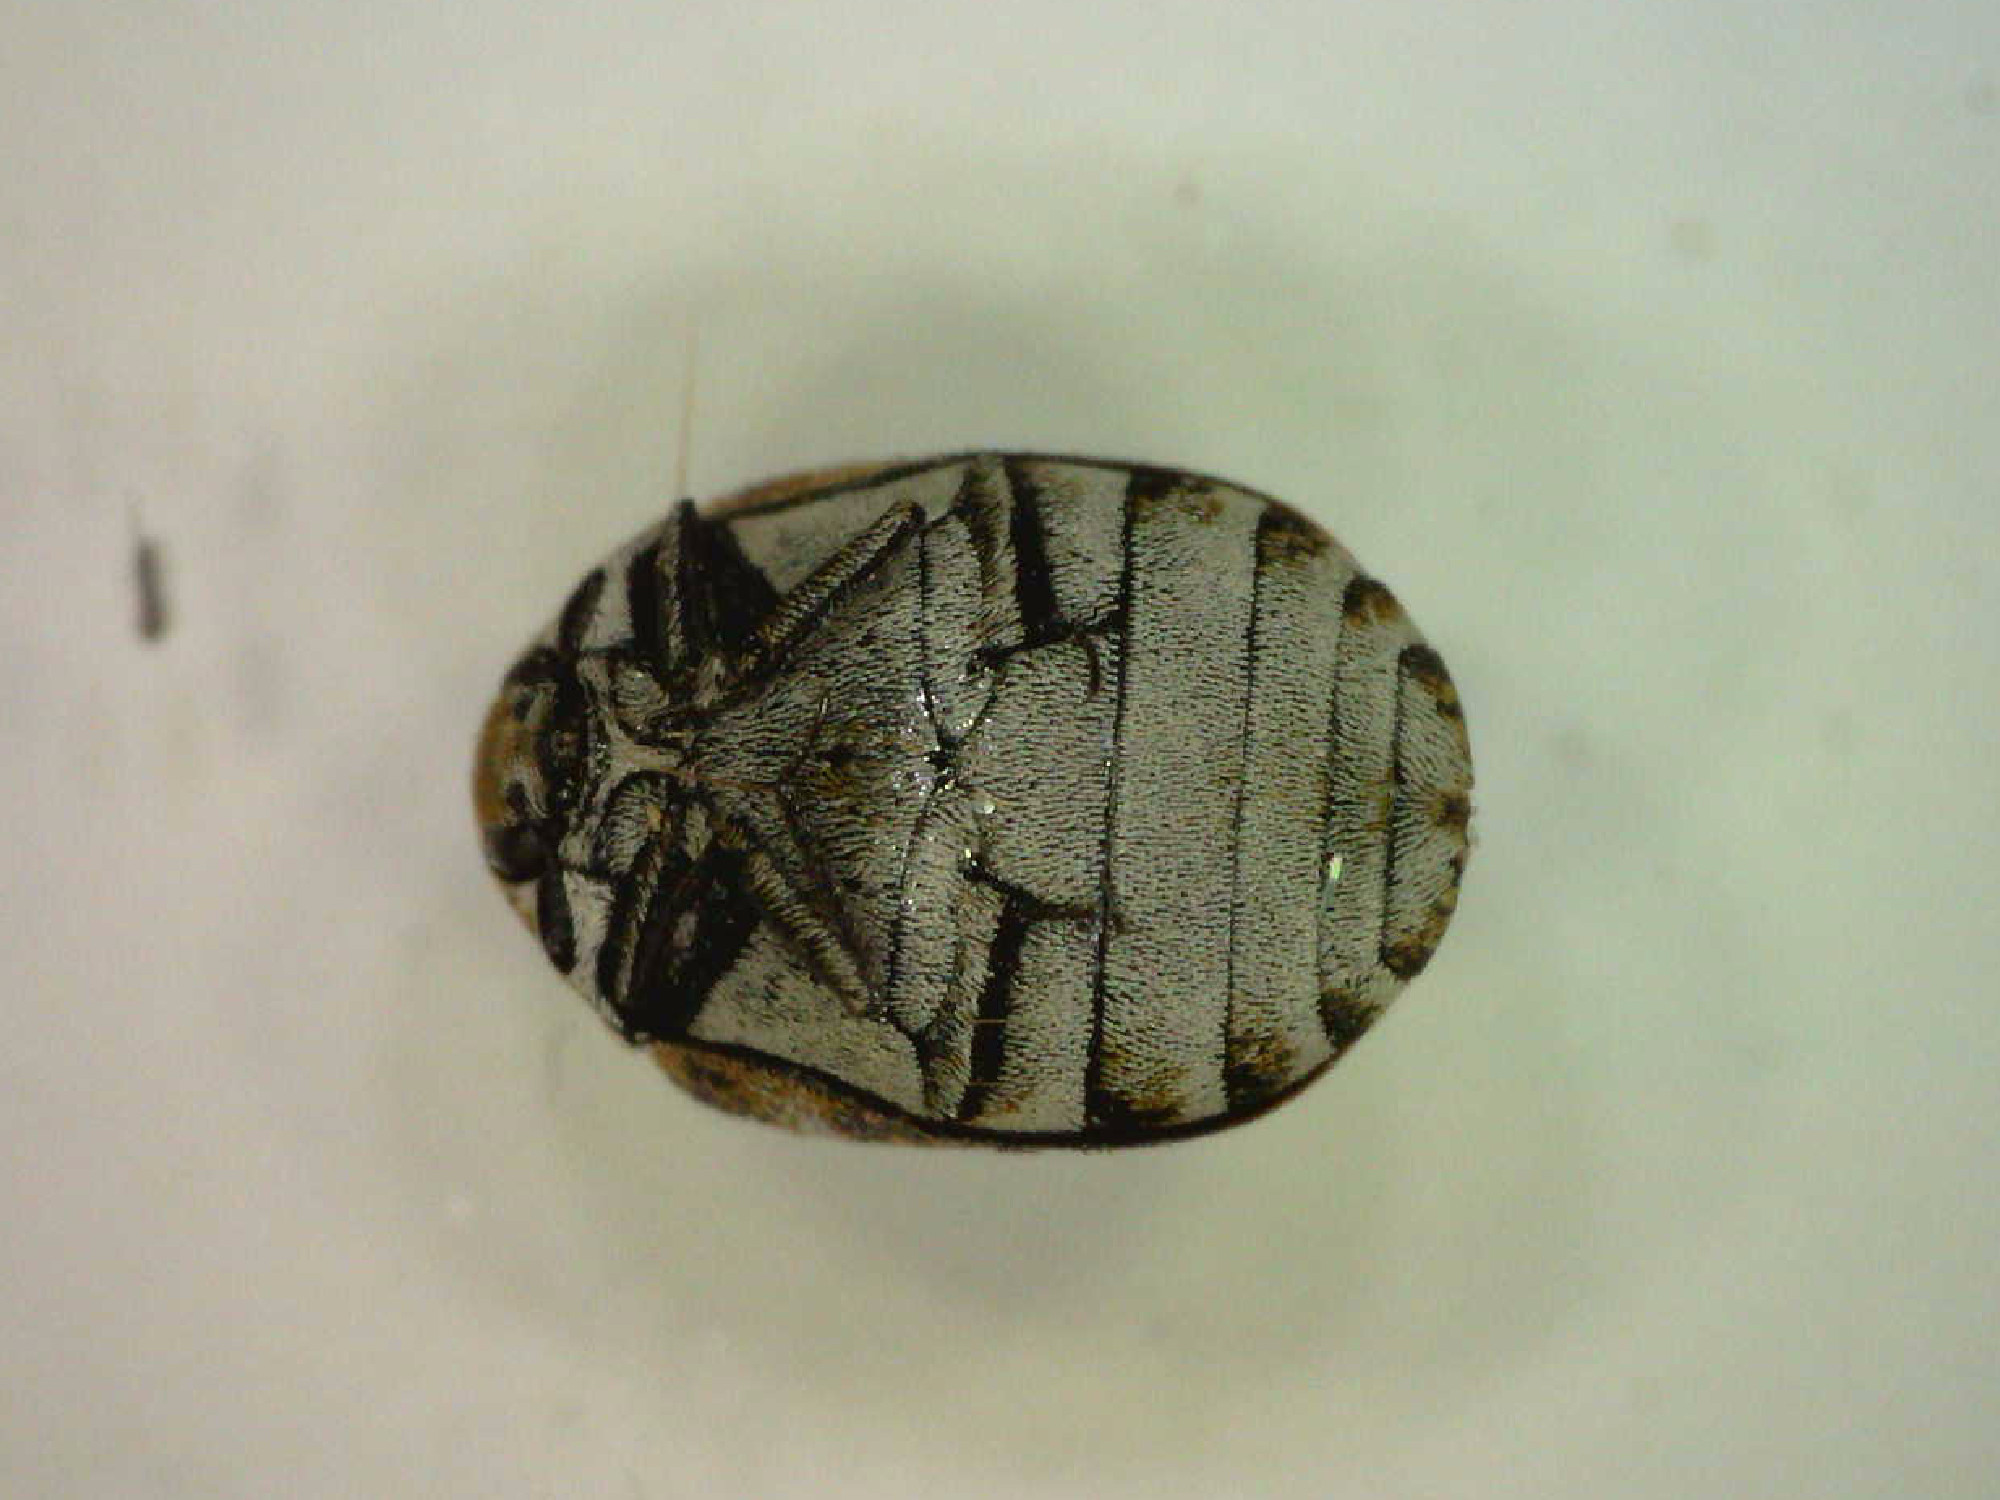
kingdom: Animalia
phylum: Arthropoda
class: Insecta
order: Coleoptera
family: Dermestidae
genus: Anthrenus
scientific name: Anthrenus verbasci
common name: Varied carpet beetle
